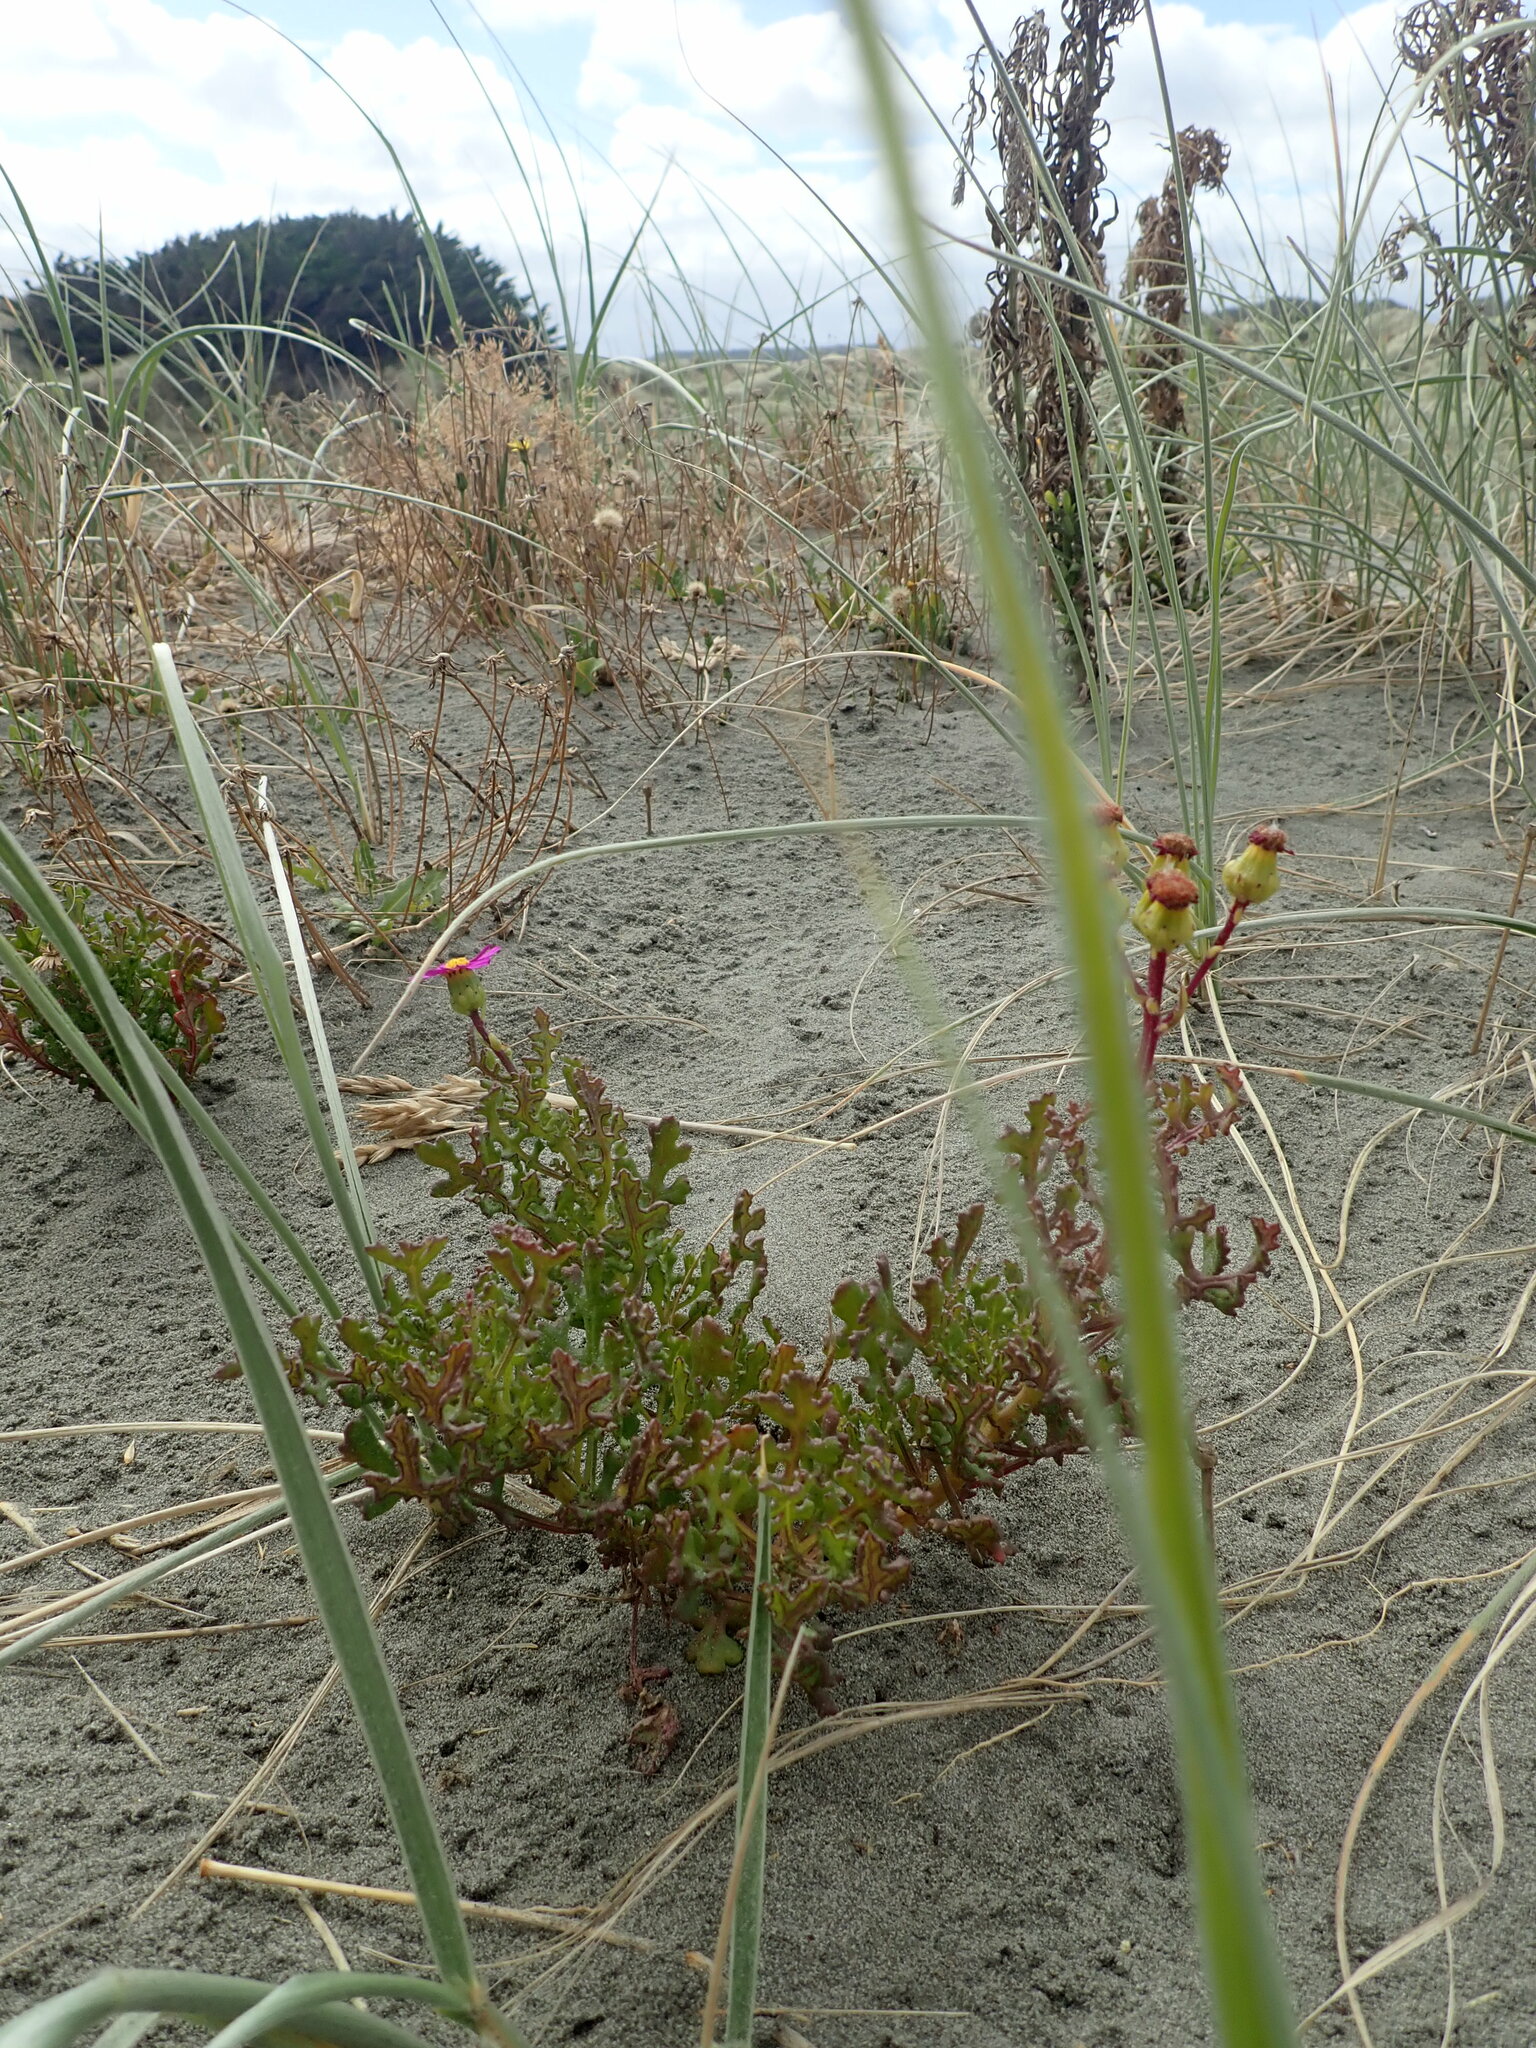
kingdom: Plantae
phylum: Tracheophyta
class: Magnoliopsida
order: Asterales
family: Asteraceae
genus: Senecio
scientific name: Senecio elegans
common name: Purple groundsel
